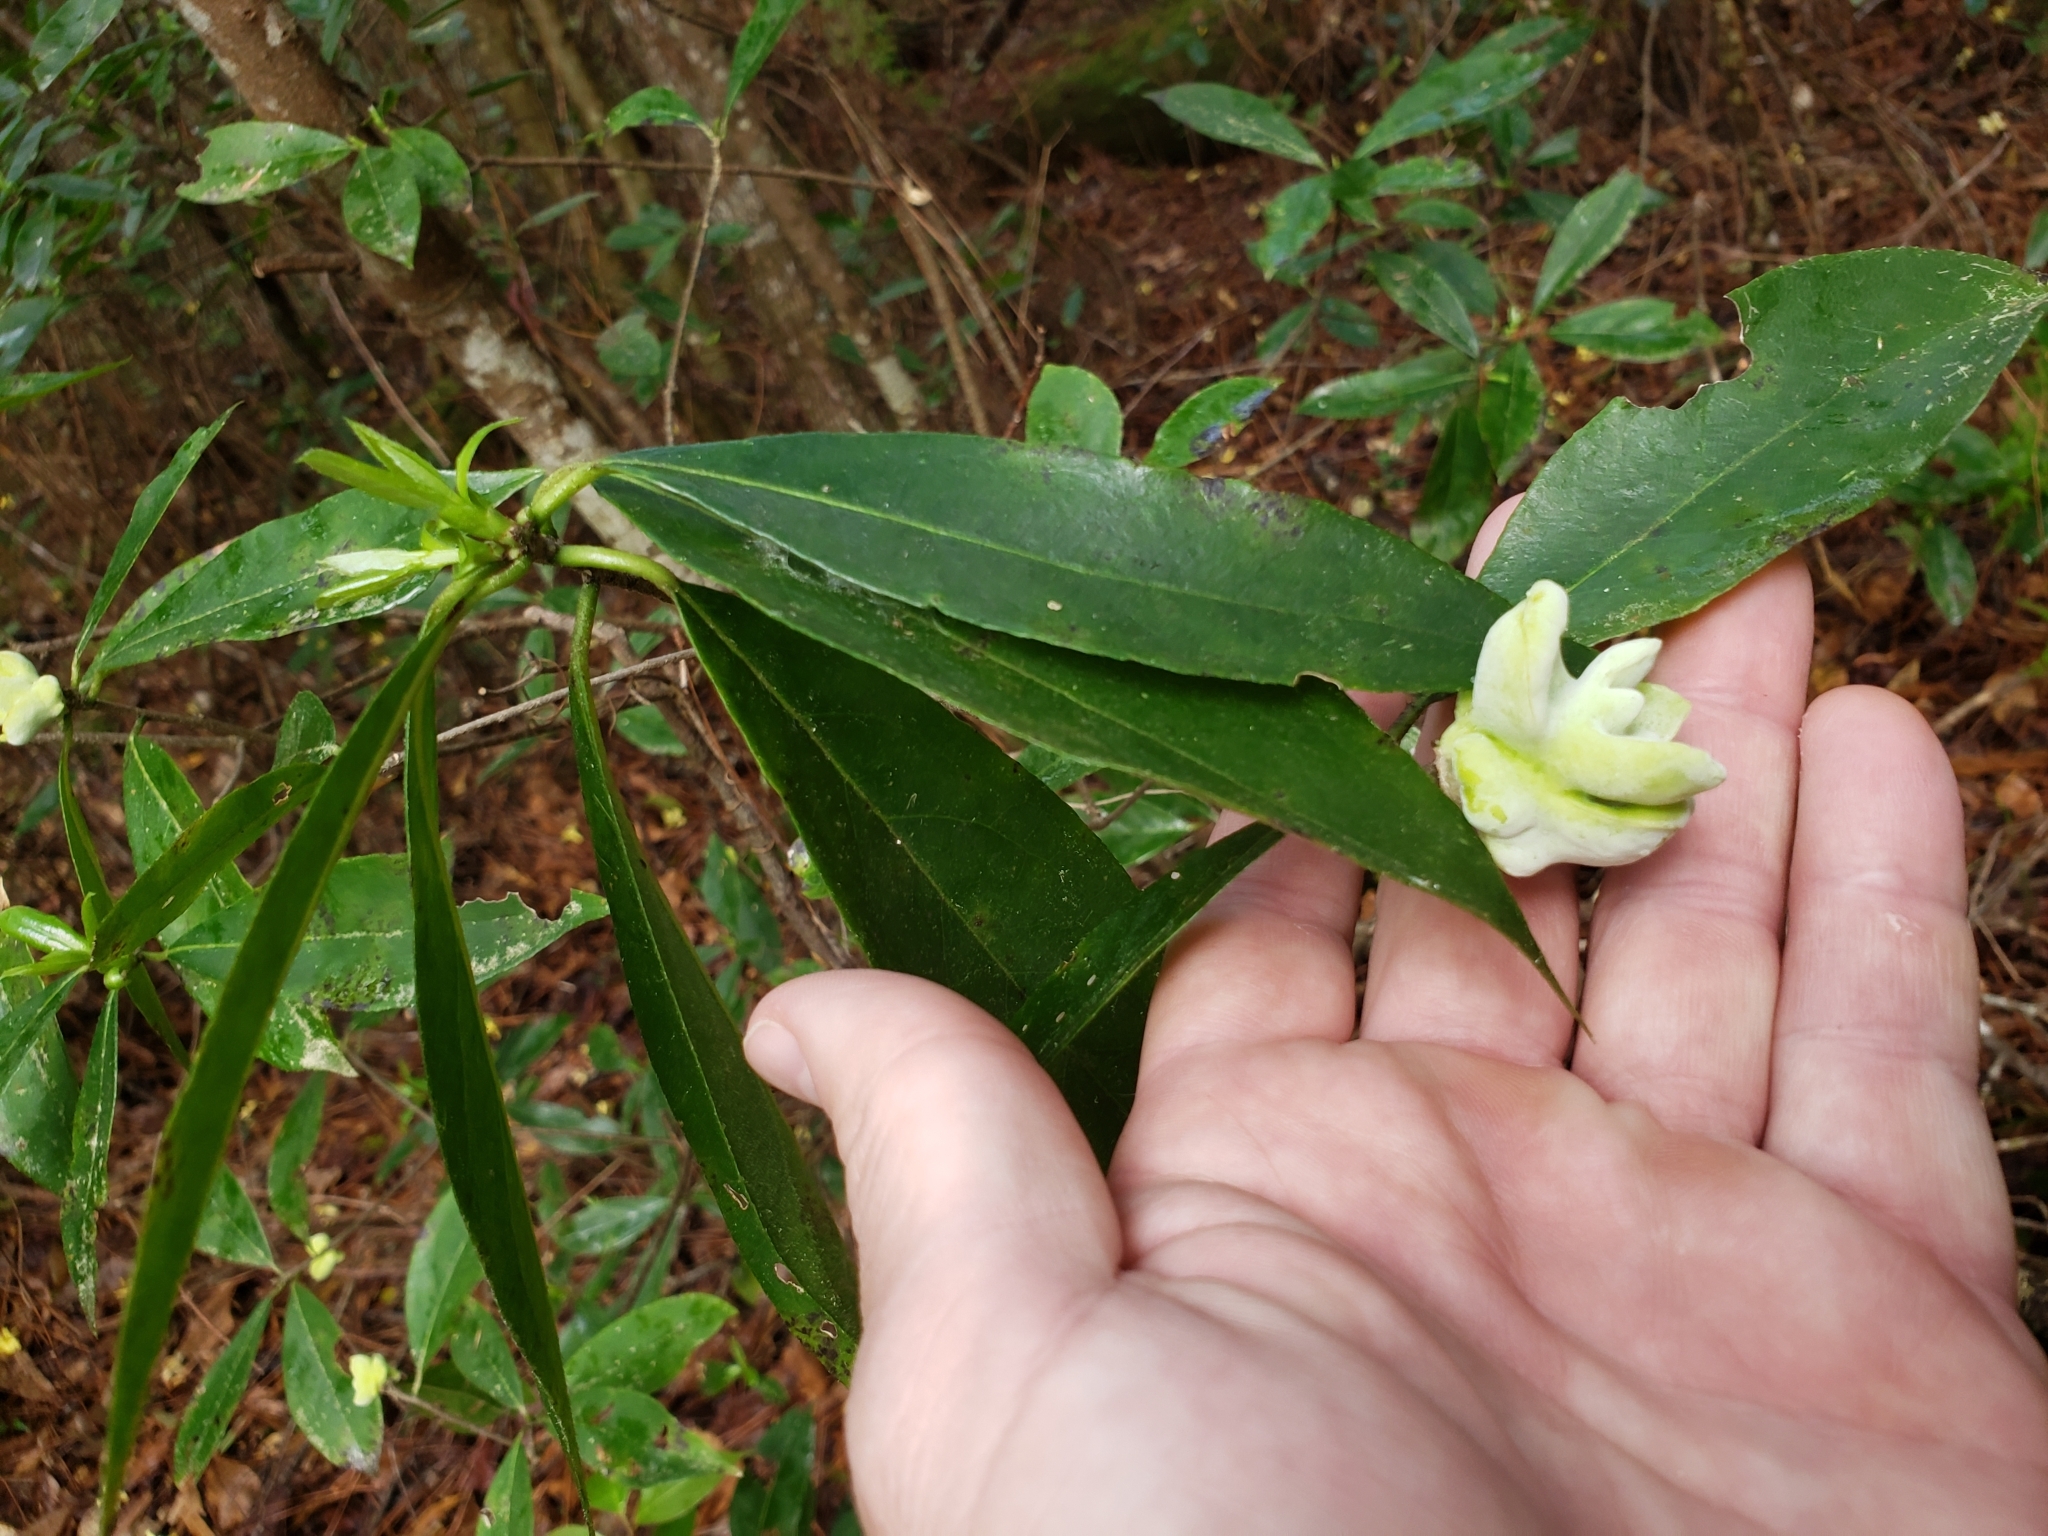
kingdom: Plantae
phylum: Tracheophyta
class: Magnoliopsida
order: Ericales
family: Symplocaceae
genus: Symplocos
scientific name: Symplocos tinctoria
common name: Horse-sugar
